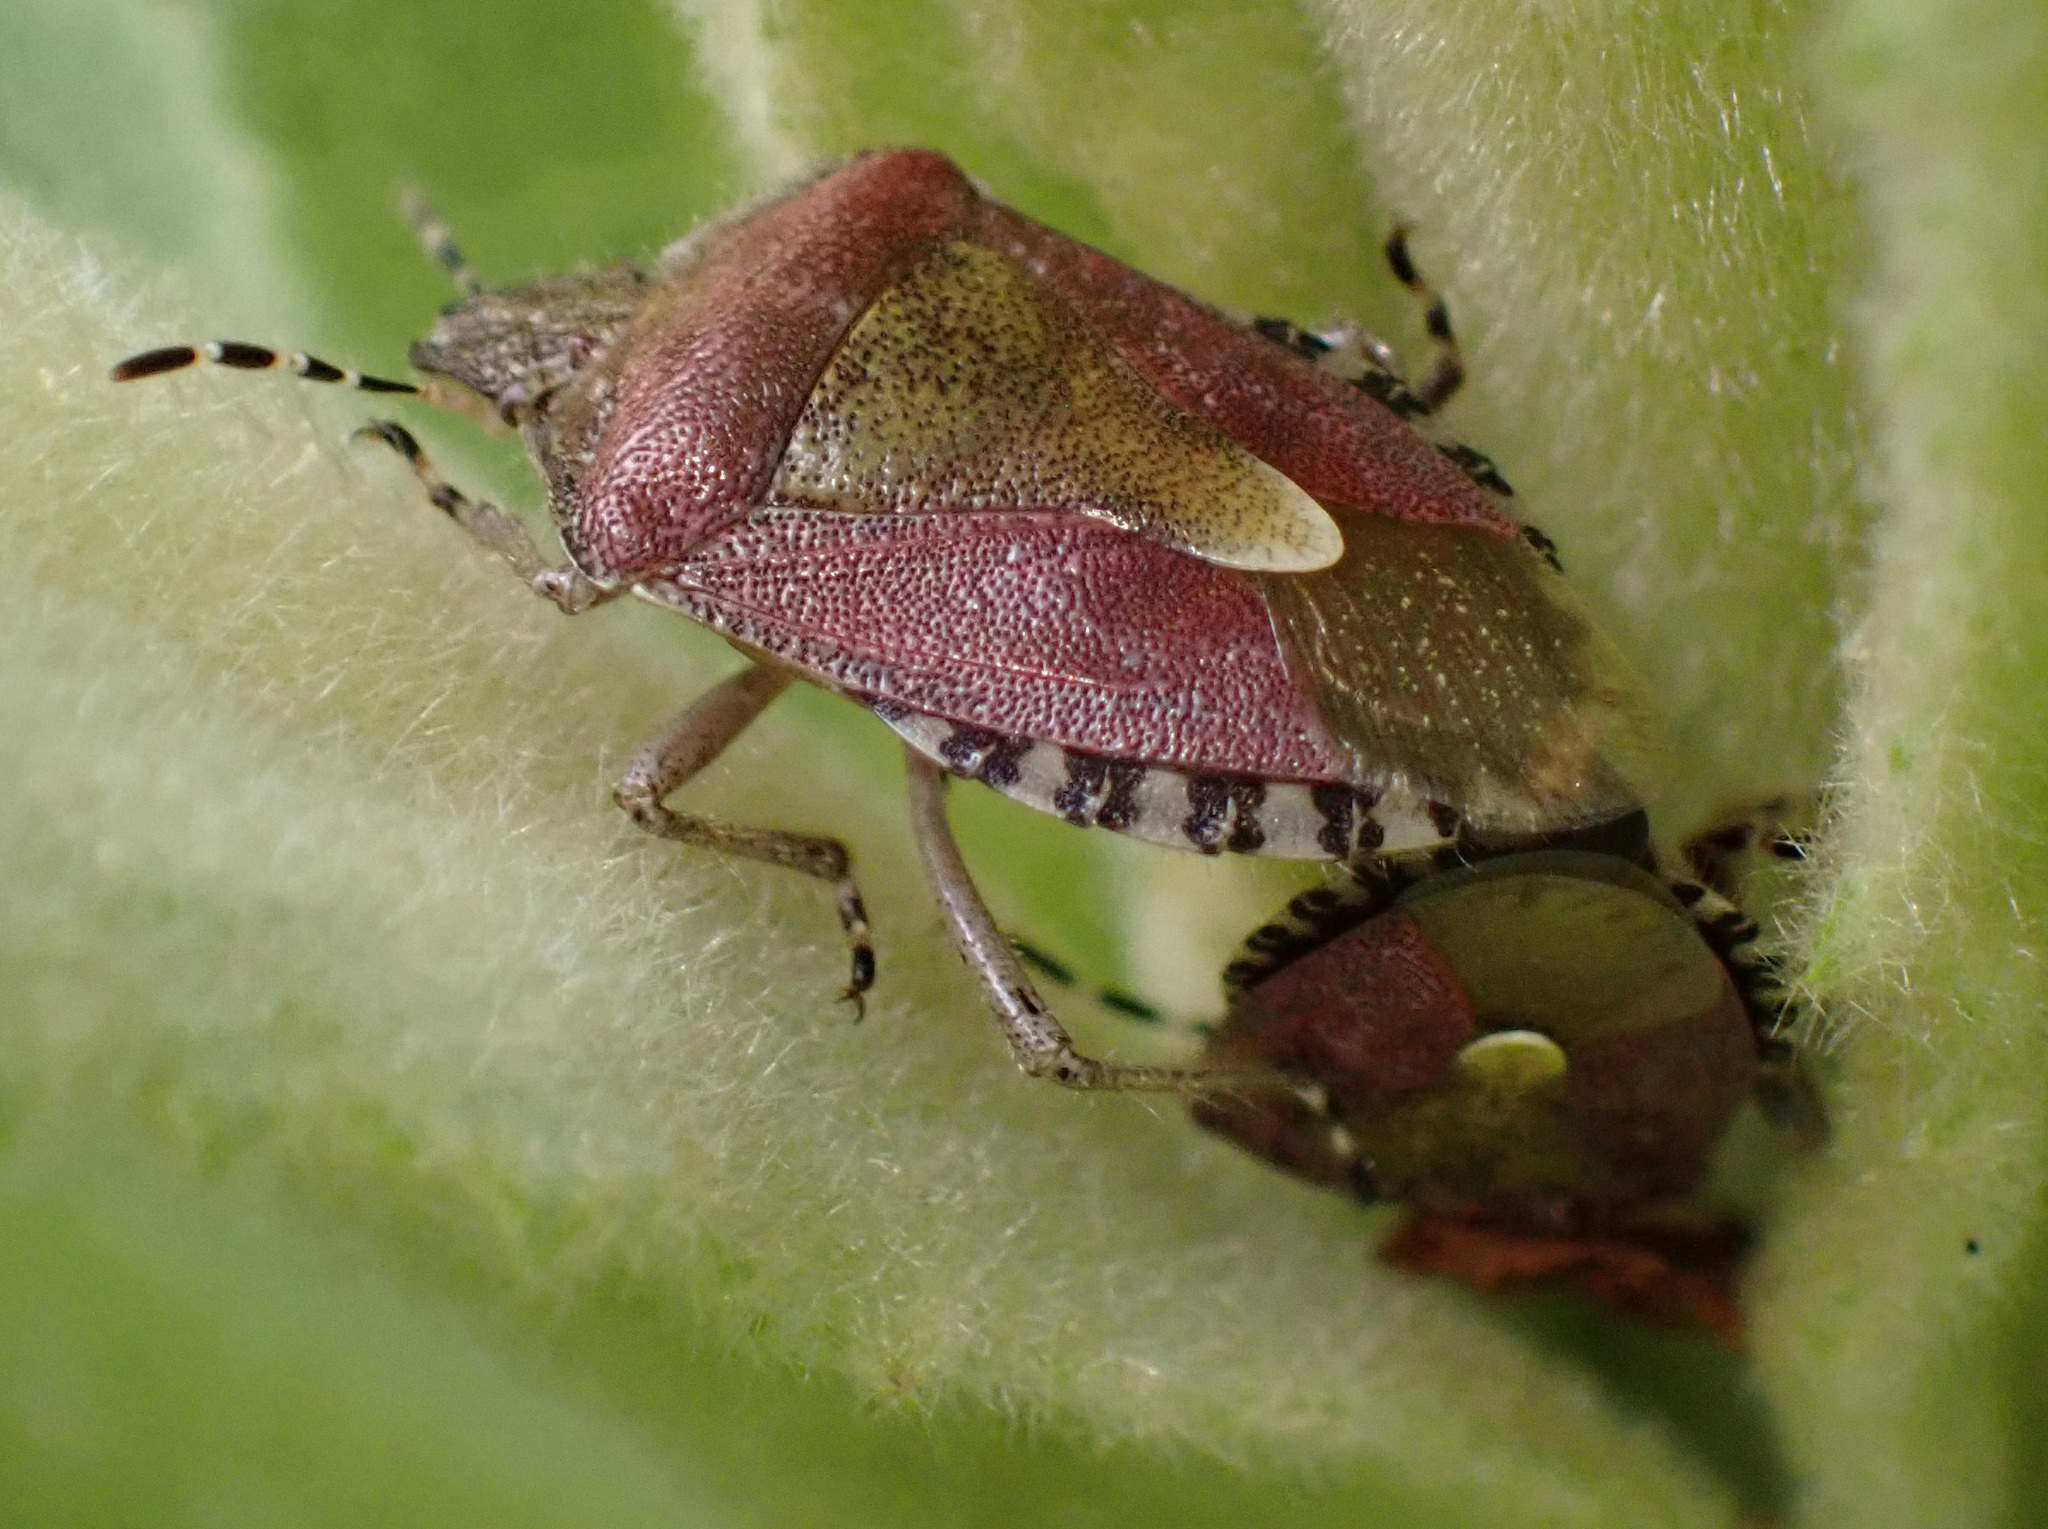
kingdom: Animalia
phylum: Arthropoda
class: Insecta
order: Hemiptera
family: Pentatomidae
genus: Dolycoris
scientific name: Dolycoris baccarum
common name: Sloe bug
